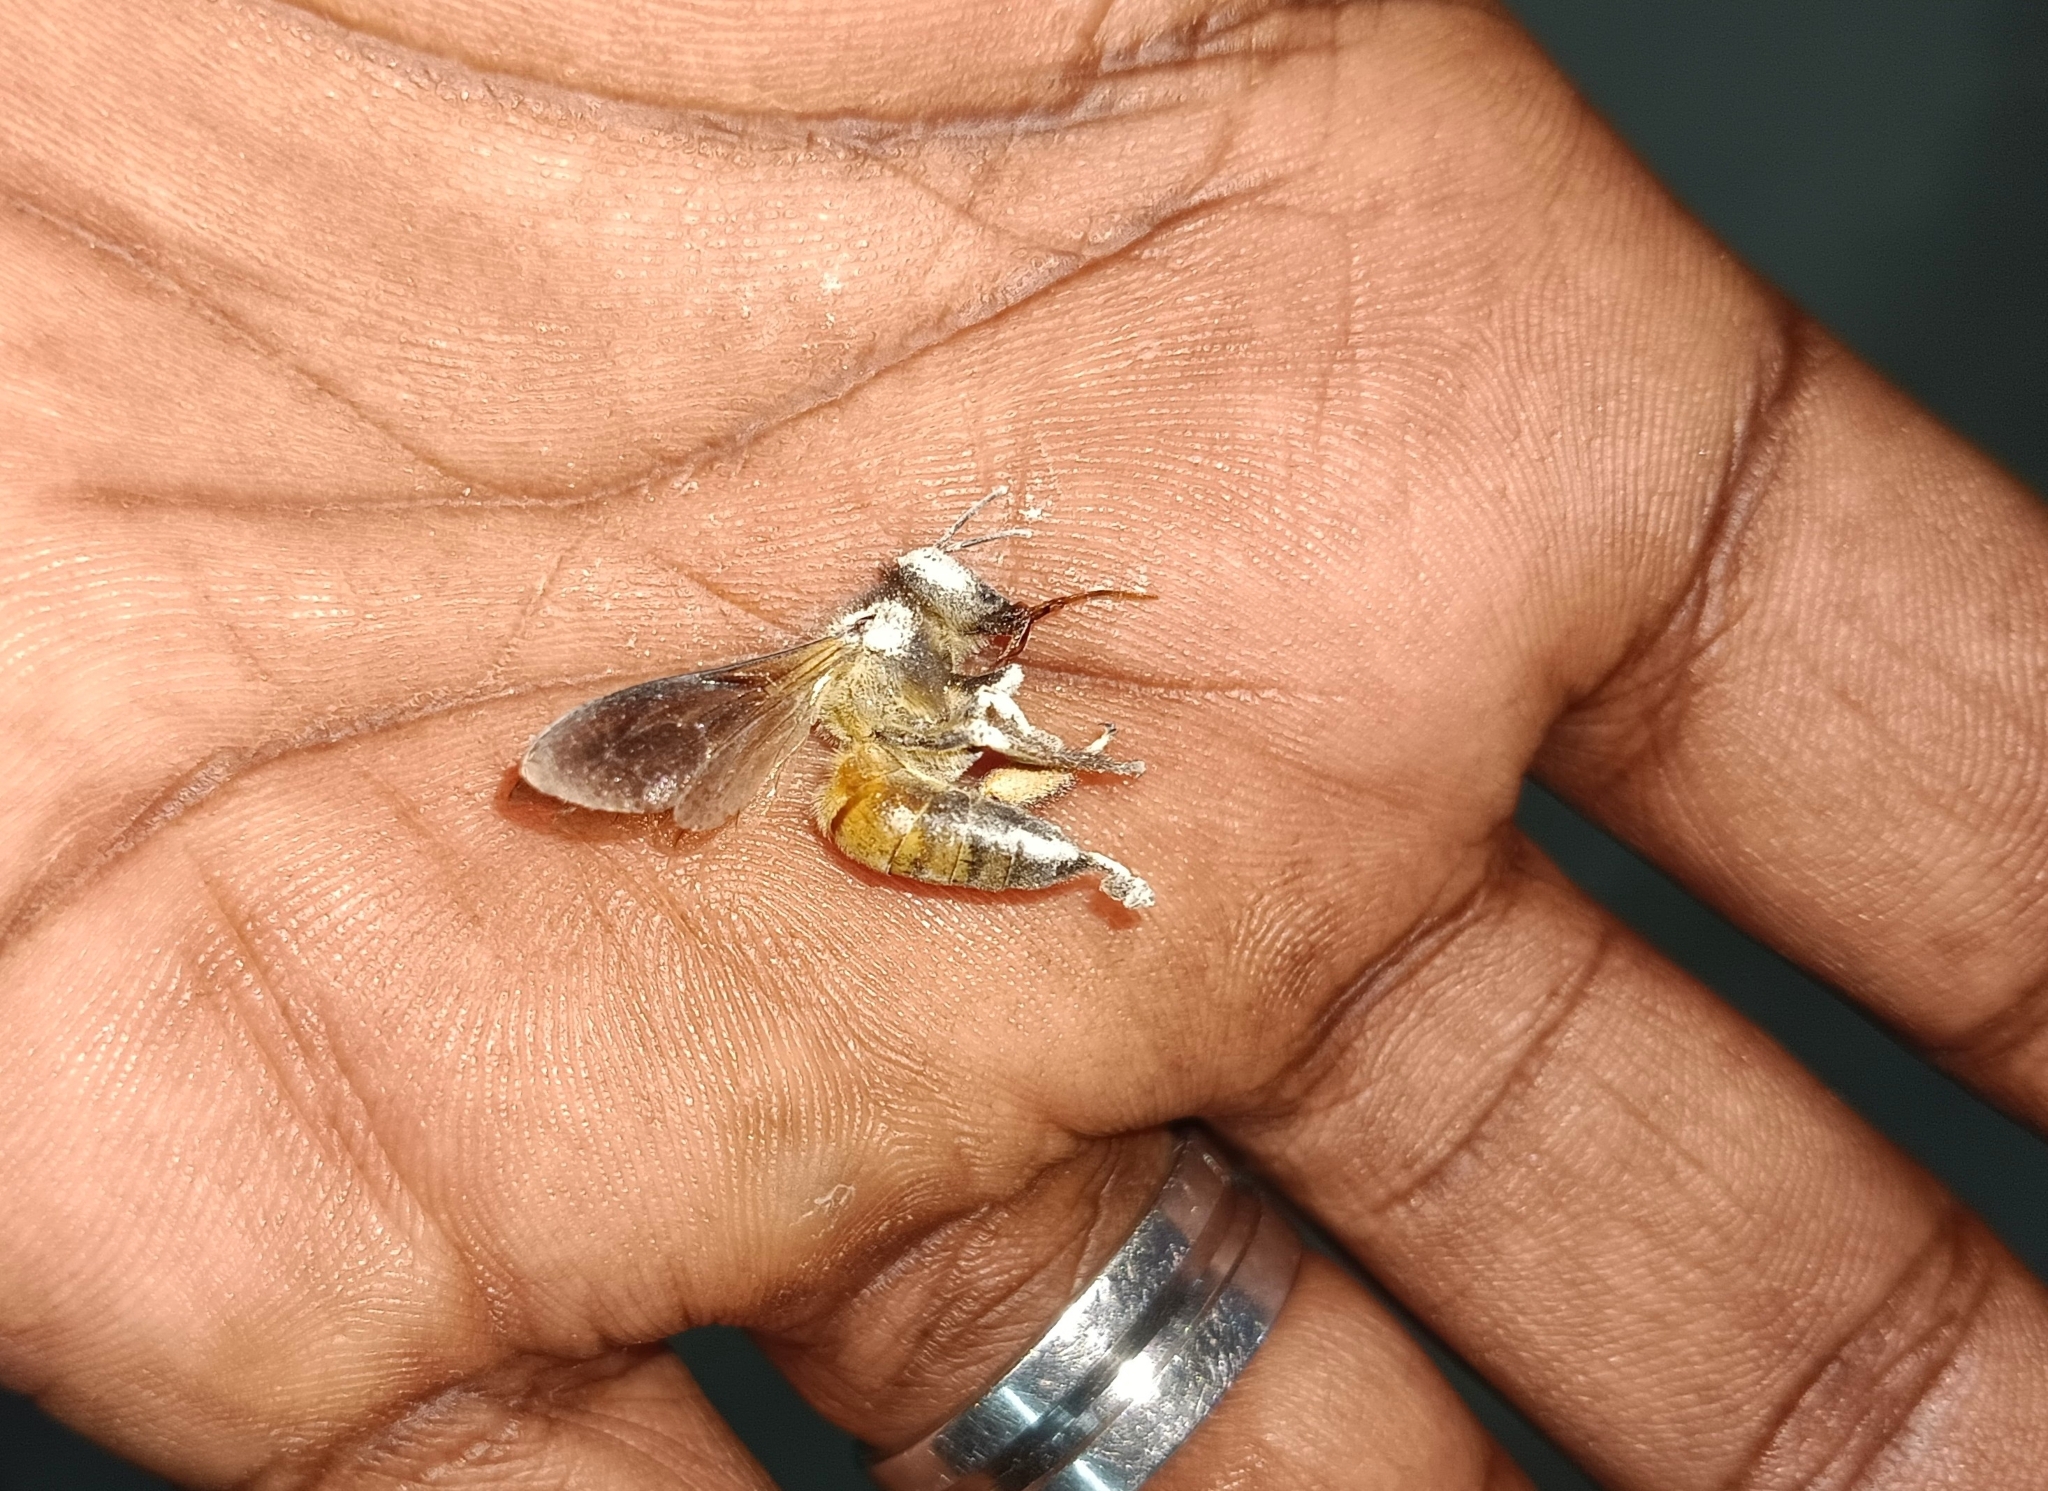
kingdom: Animalia
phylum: Arthropoda
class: Insecta
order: Hymenoptera
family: Apidae
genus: Apis
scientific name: Apis dorsata
